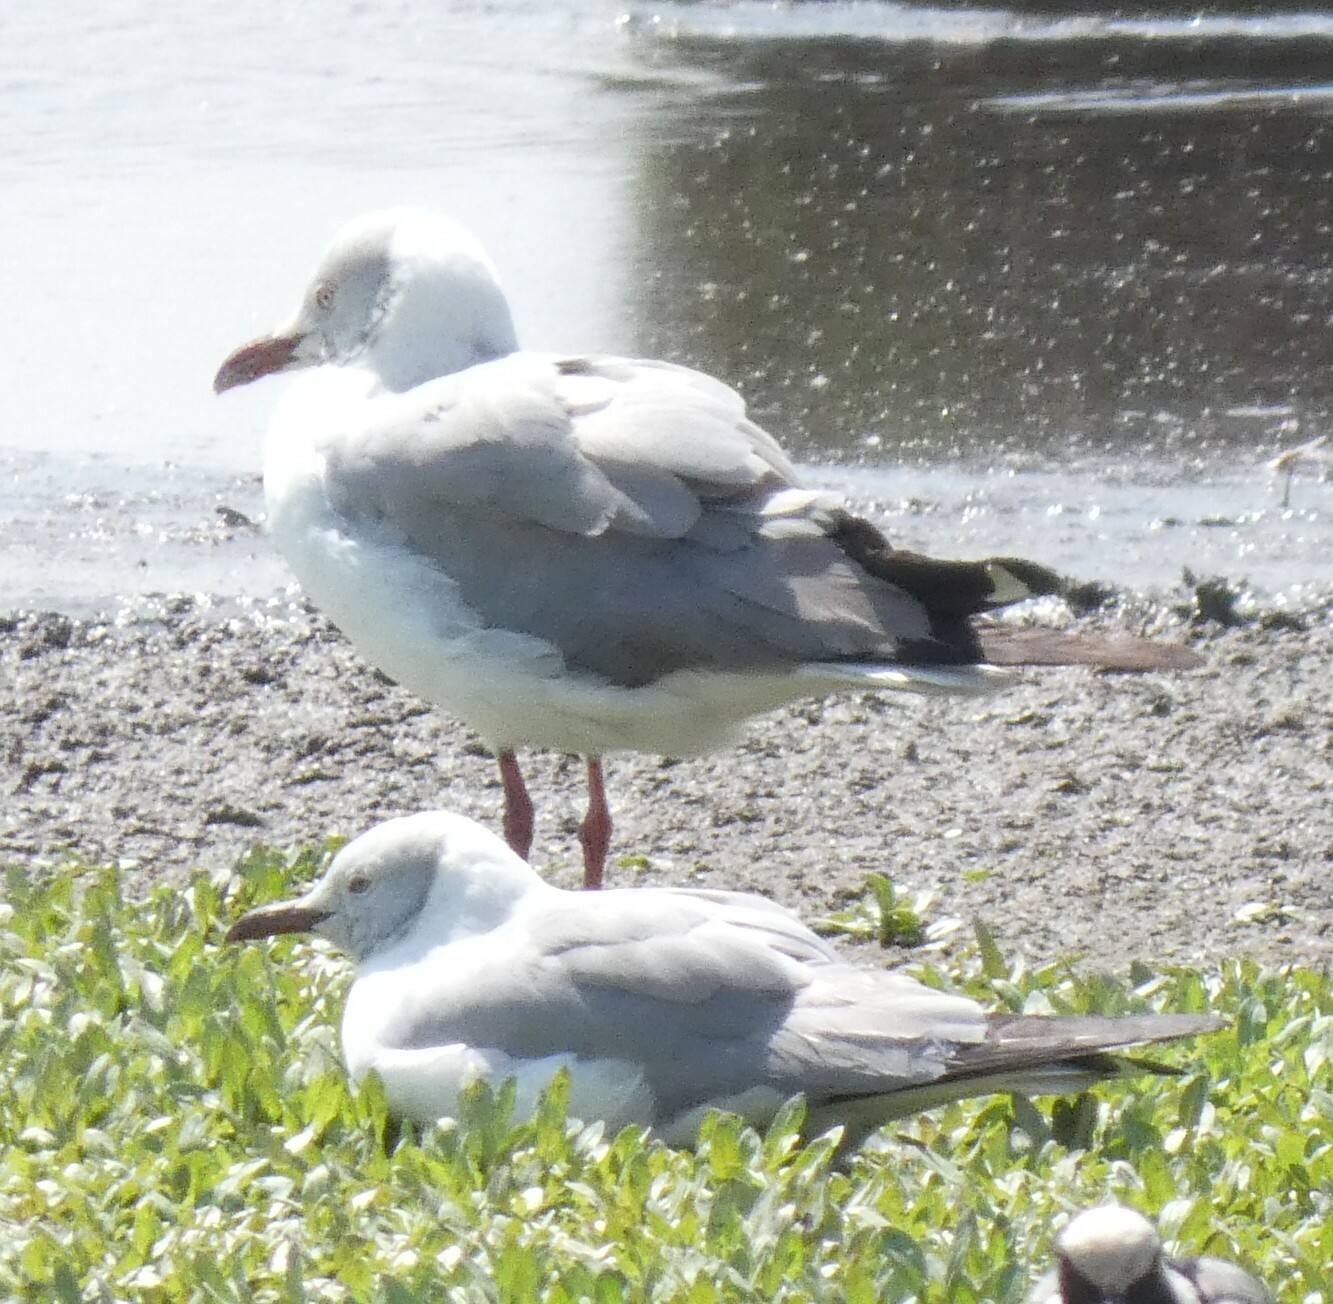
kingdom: Animalia
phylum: Chordata
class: Aves
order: Charadriiformes
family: Laridae
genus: Chroicocephalus
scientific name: Chroicocephalus cirrocephalus
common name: Grey-headed gull
